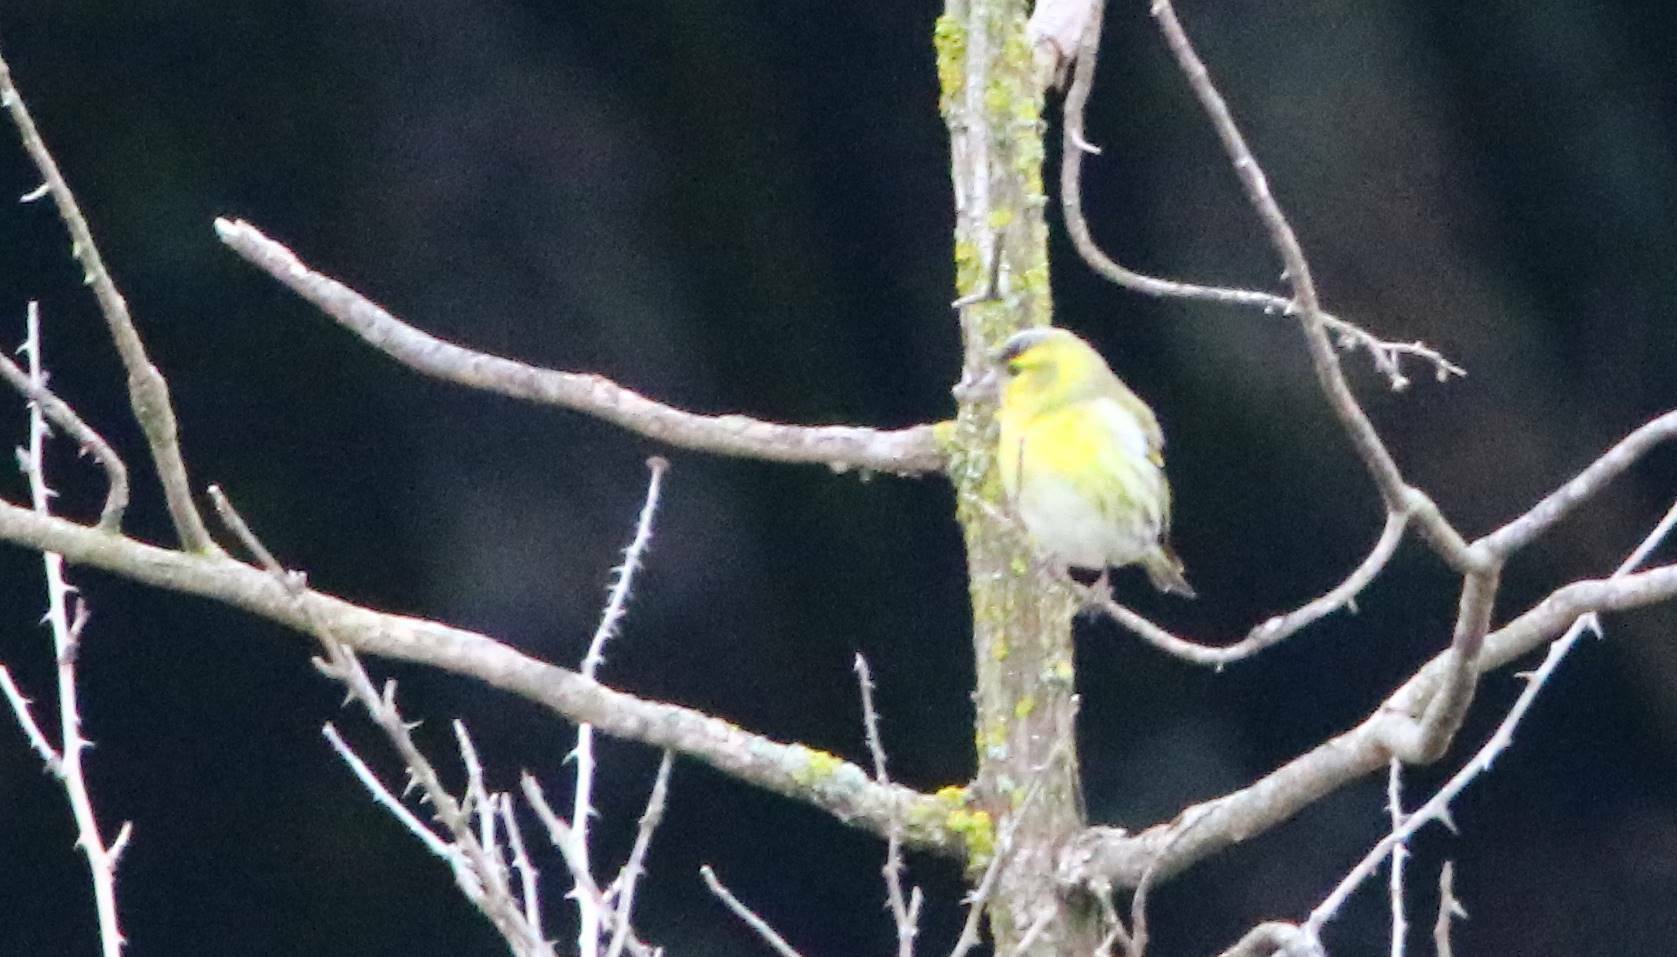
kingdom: Animalia
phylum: Chordata
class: Aves
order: Passeriformes
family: Fringillidae
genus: Spinus
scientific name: Spinus spinus
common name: Eurasian siskin
